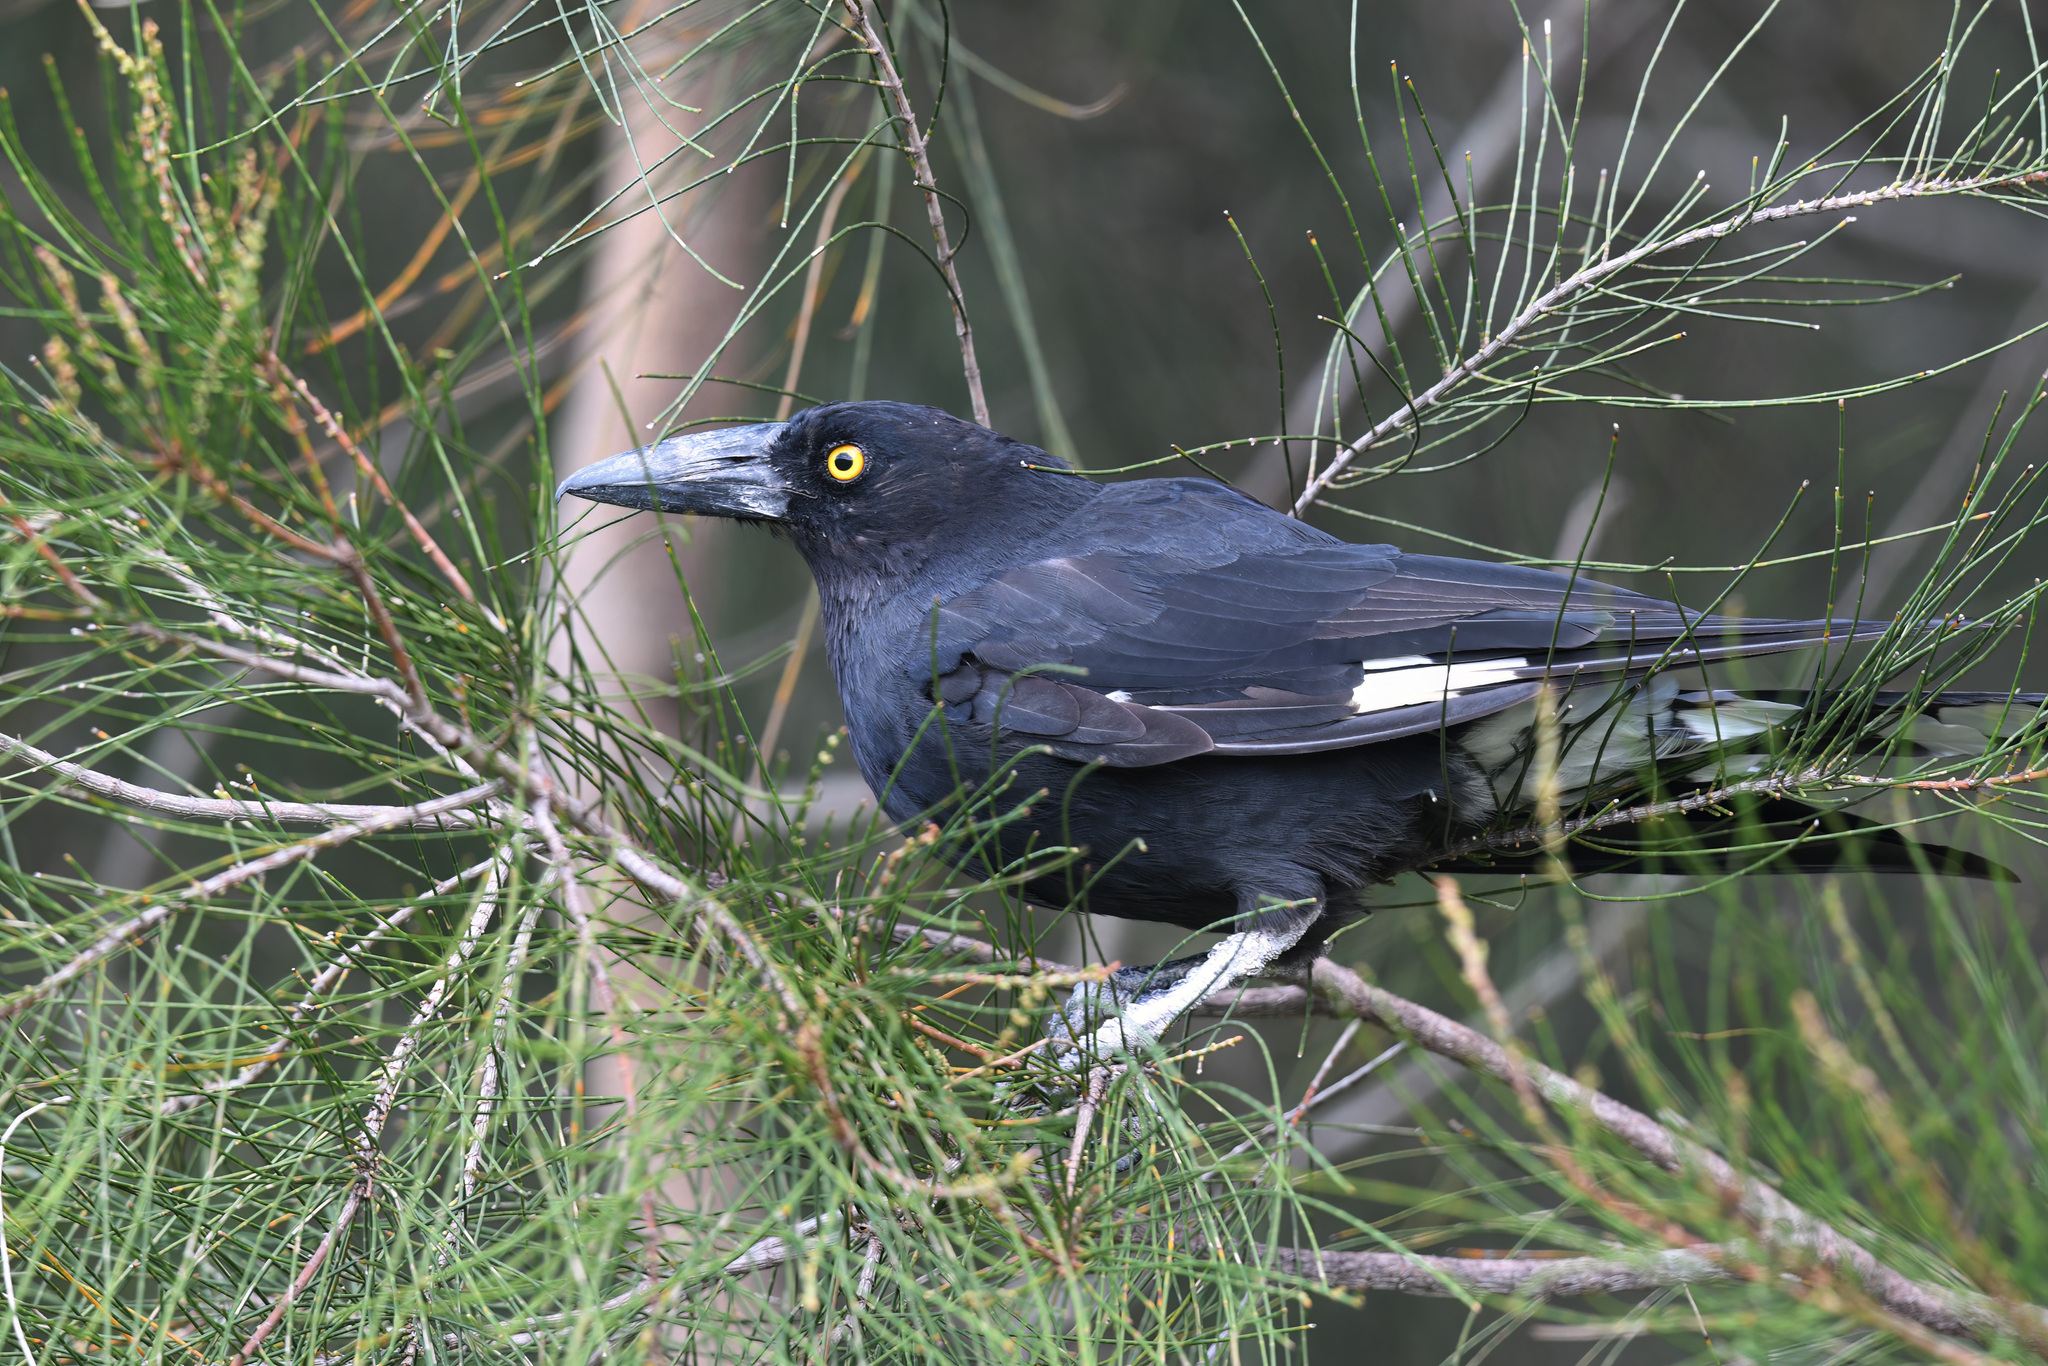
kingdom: Animalia
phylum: Chordata
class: Aves
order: Passeriformes
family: Cracticidae
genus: Strepera
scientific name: Strepera graculina
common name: Pied currawong
